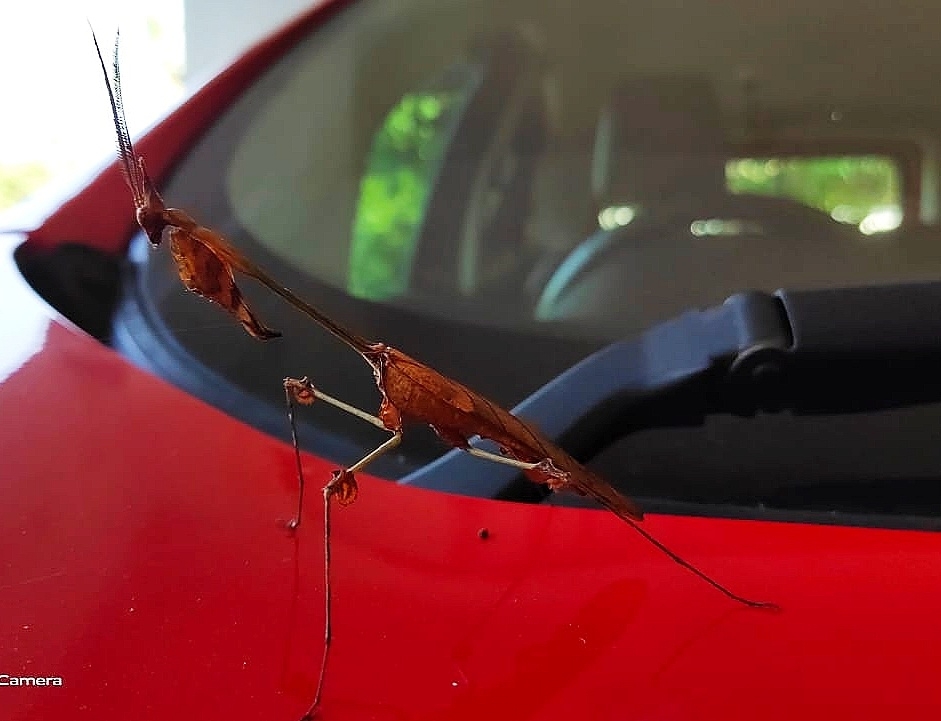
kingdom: Animalia
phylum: Arthropoda
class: Insecta
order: Mantodea
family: Empusidae
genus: Gongylus
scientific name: Gongylus gongylodes
